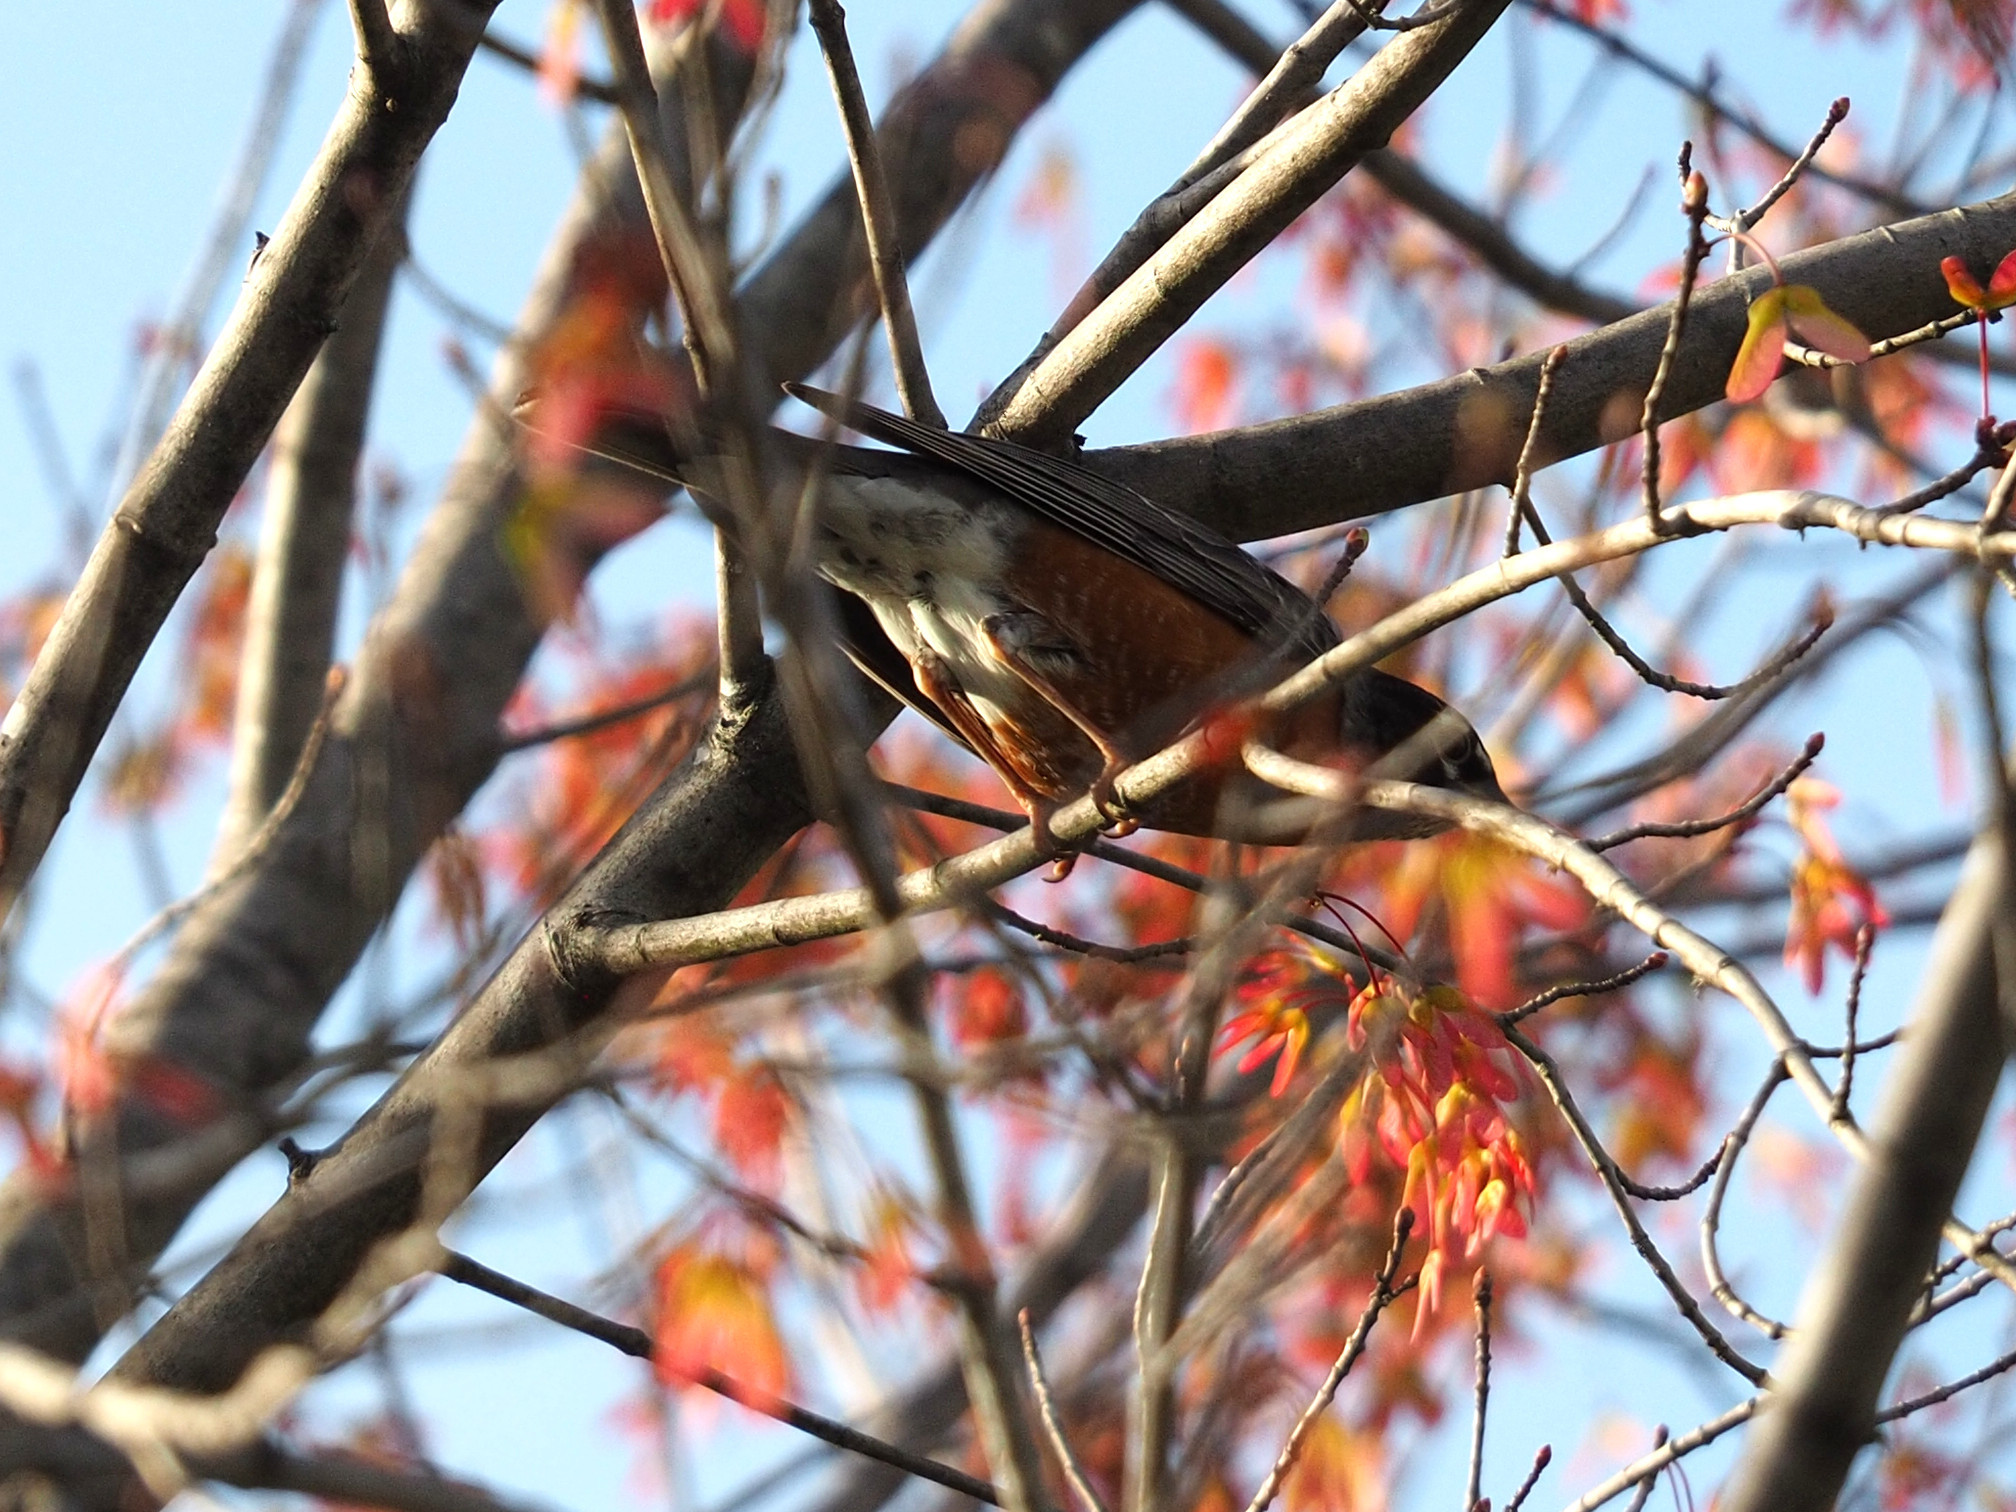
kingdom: Animalia
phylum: Chordata
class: Aves
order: Passeriformes
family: Turdidae
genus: Turdus
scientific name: Turdus migratorius
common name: American robin
